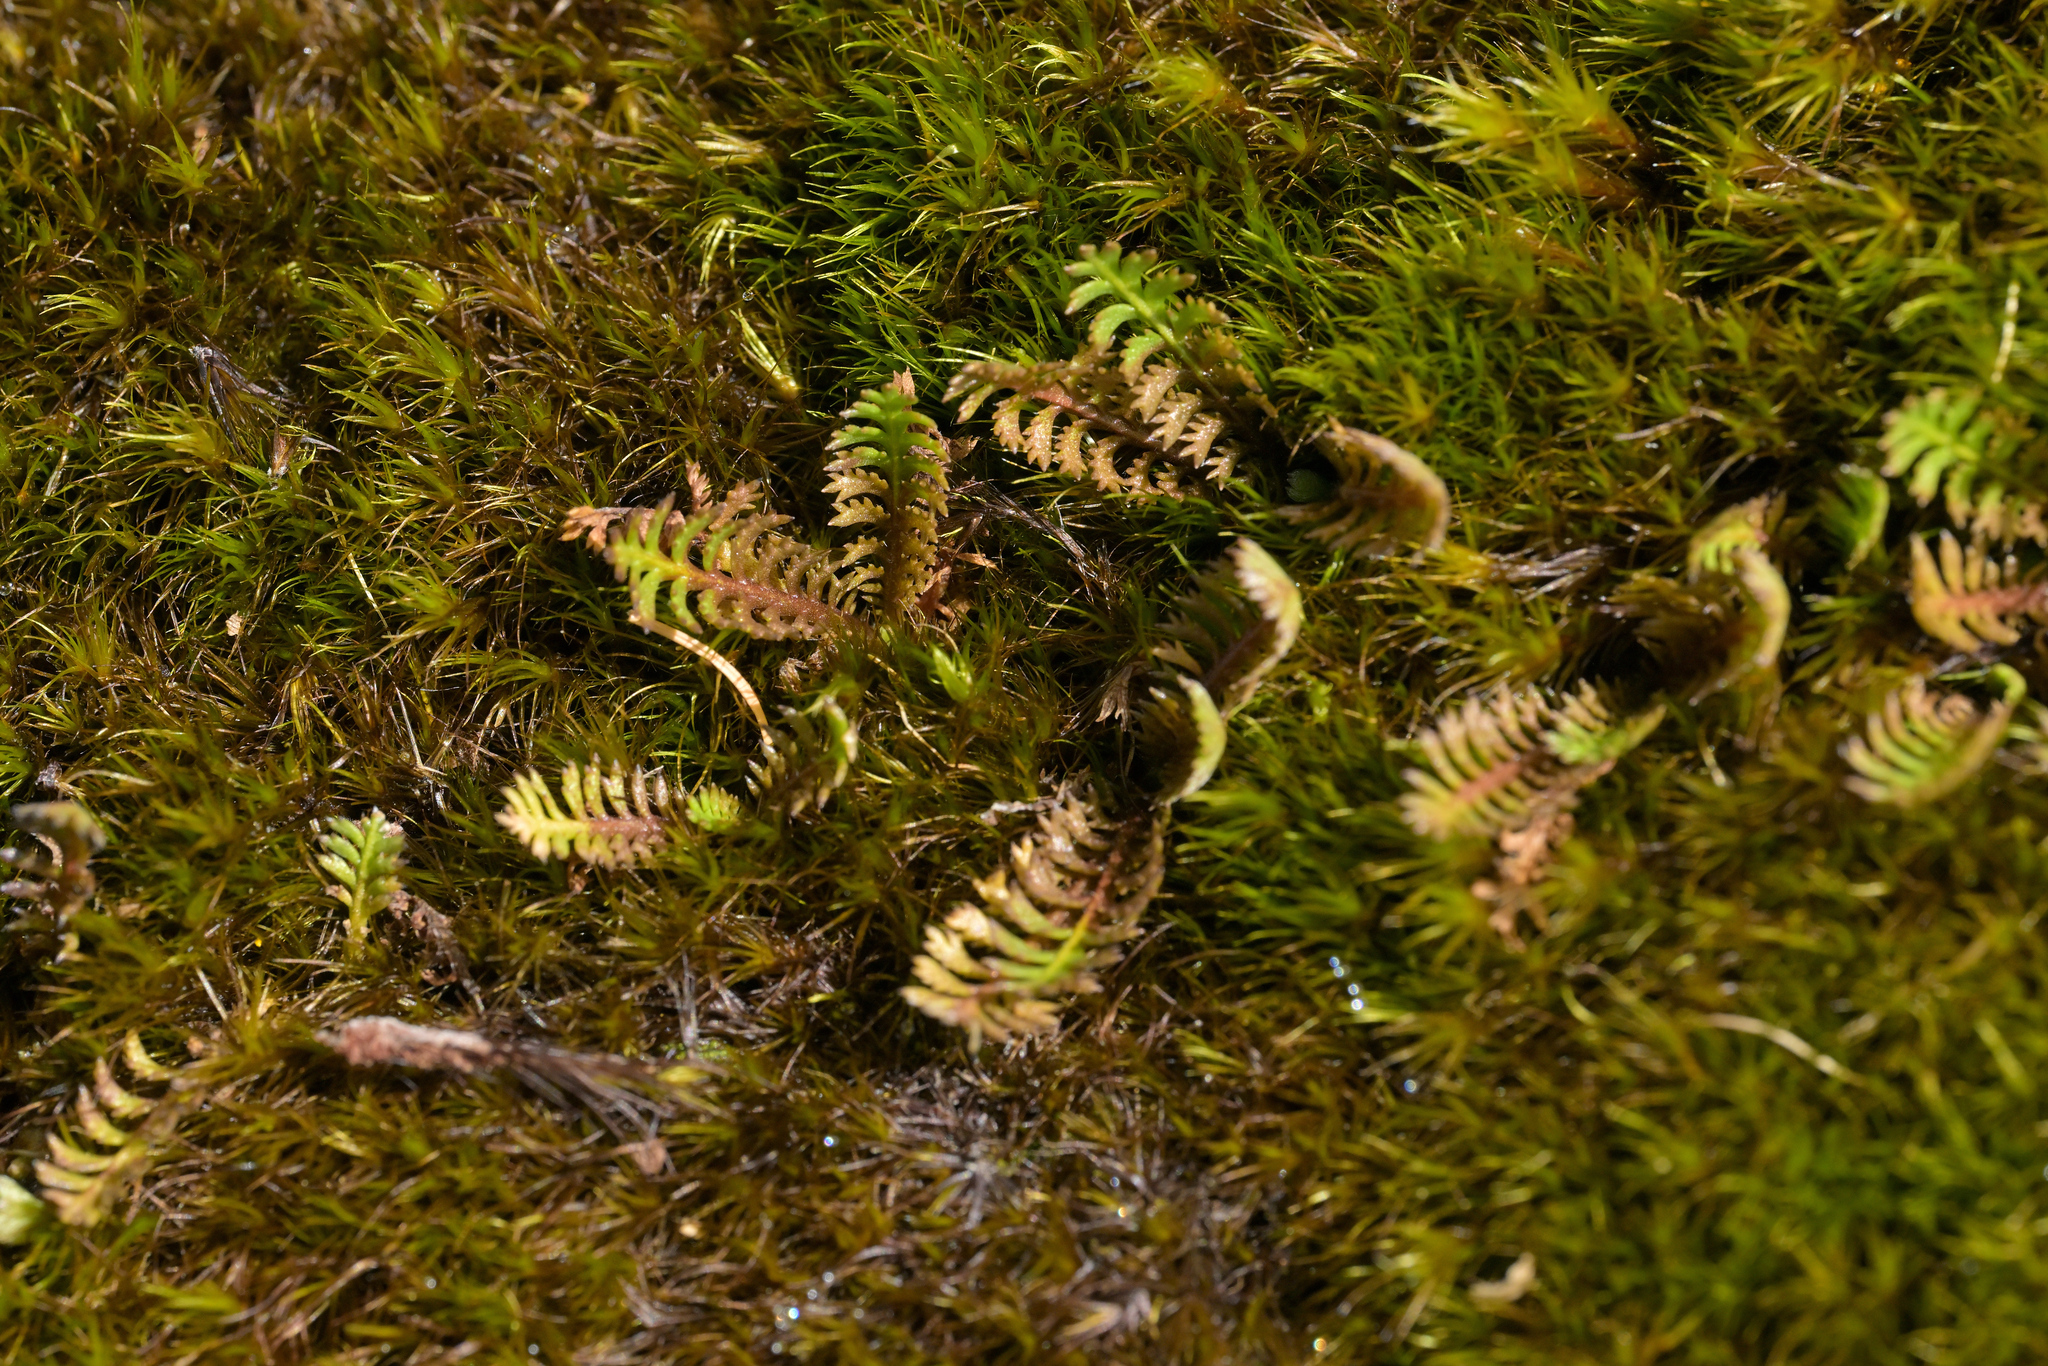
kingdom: Plantae
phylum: Tracheophyta
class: Magnoliopsida
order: Asterales
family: Asteraceae
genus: Leptinella
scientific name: Leptinella squalida
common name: New zealand brass-buttons
